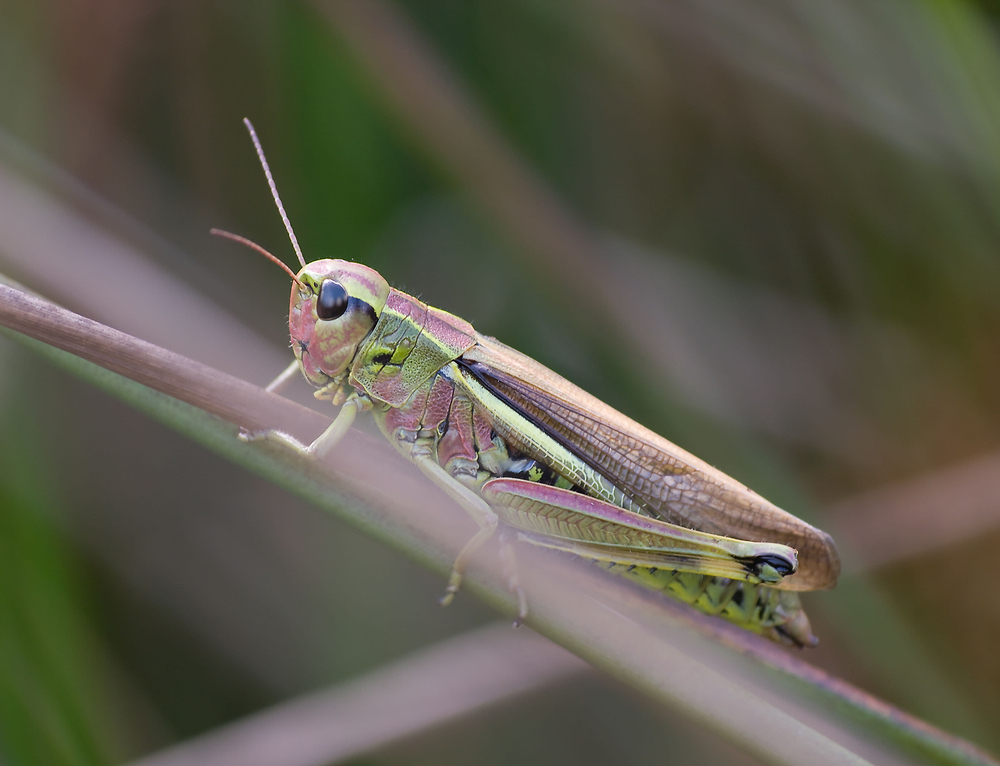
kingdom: Animalia
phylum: Arthropoda
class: Insecta
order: Orthoptera
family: Acrididae
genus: Stethophyma
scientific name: Stethophyma grossum
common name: Large marsh grasshopper
